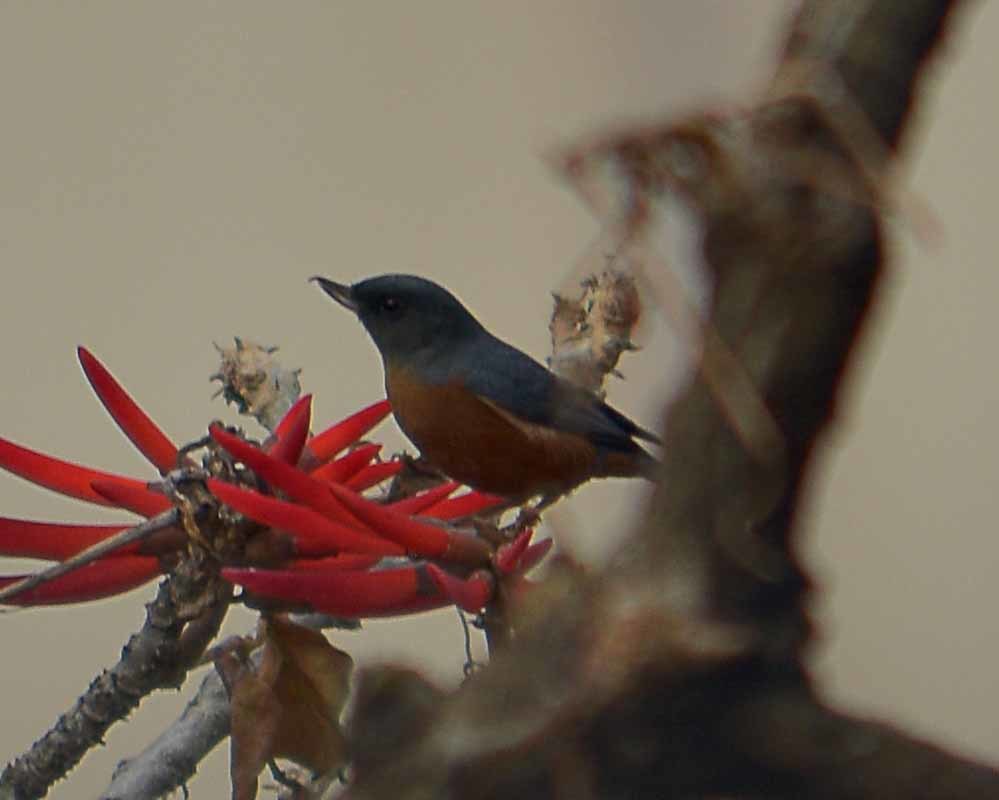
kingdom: Animalia
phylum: Chordata
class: Aves
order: Passeriformes
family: Thraupidae
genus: Diglossa
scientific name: Diglossa baritula
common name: Cinnamon-bellied flowerpiercer
